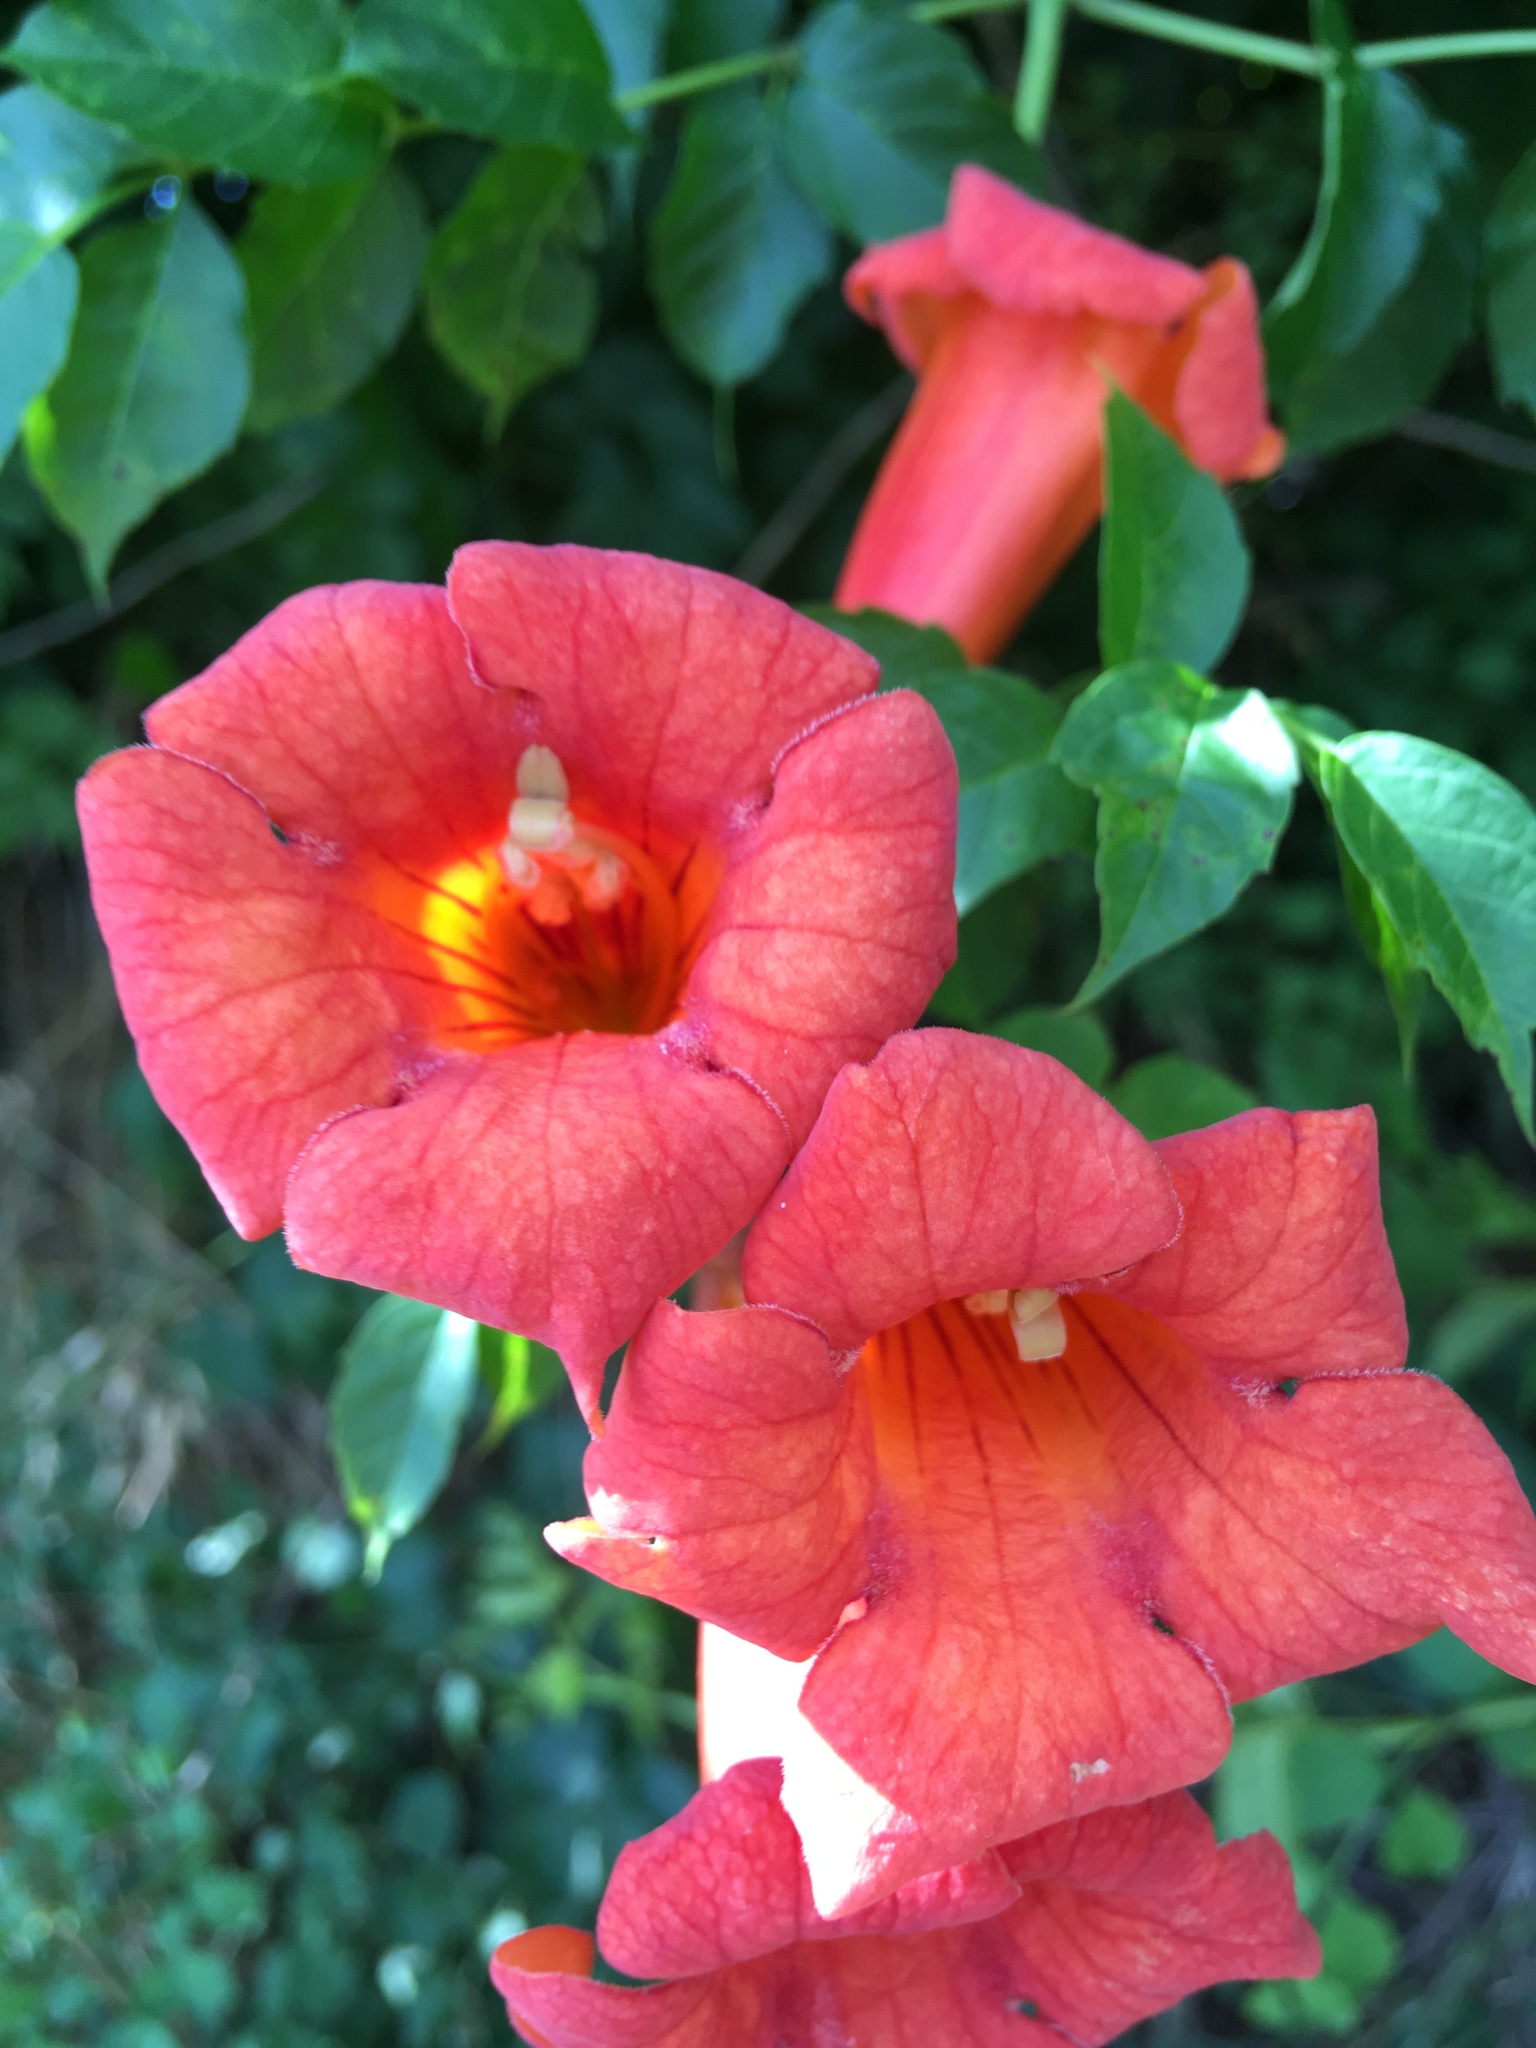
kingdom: Plantae
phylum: Tracheophyta
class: Magnoliopsida
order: Lamiales
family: Bignoniaceae
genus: Campsis
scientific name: Campsis radicans
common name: Trumpet-creeper
